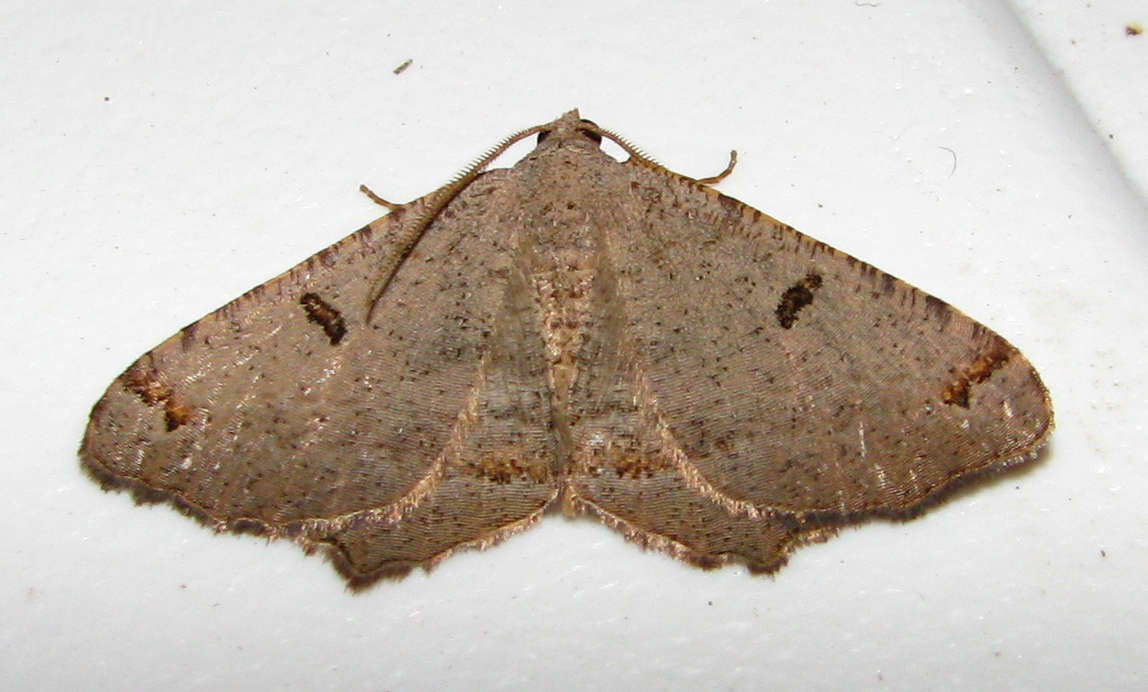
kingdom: Animalia
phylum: Arthropoda
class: Insecta
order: Lepidoptera
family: Geometridae
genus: Dissomorphia
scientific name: Dissomorphia australiaria
